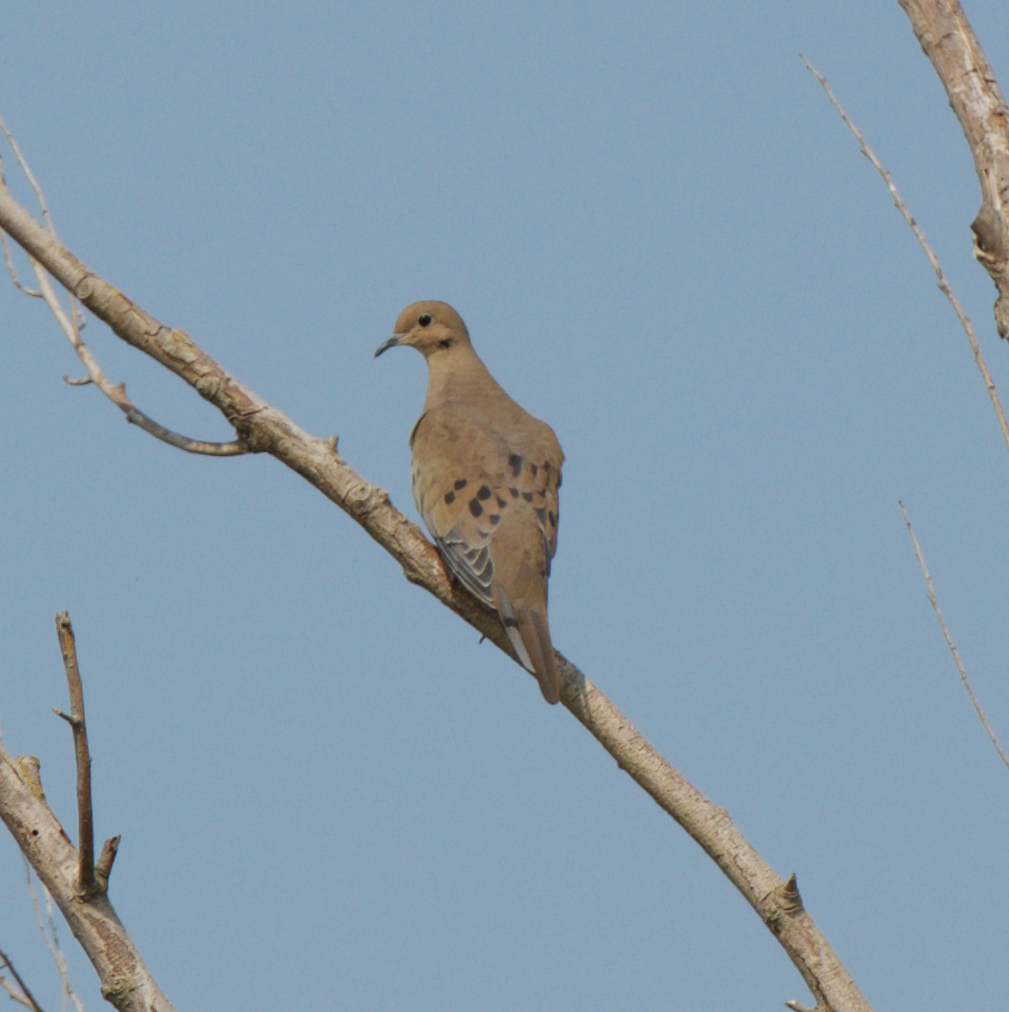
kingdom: Animalia
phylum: Chordata
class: Aves
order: Columbiformes
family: Columbidae
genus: Zenaida
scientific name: Zenaida macroura
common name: Mourning dove
